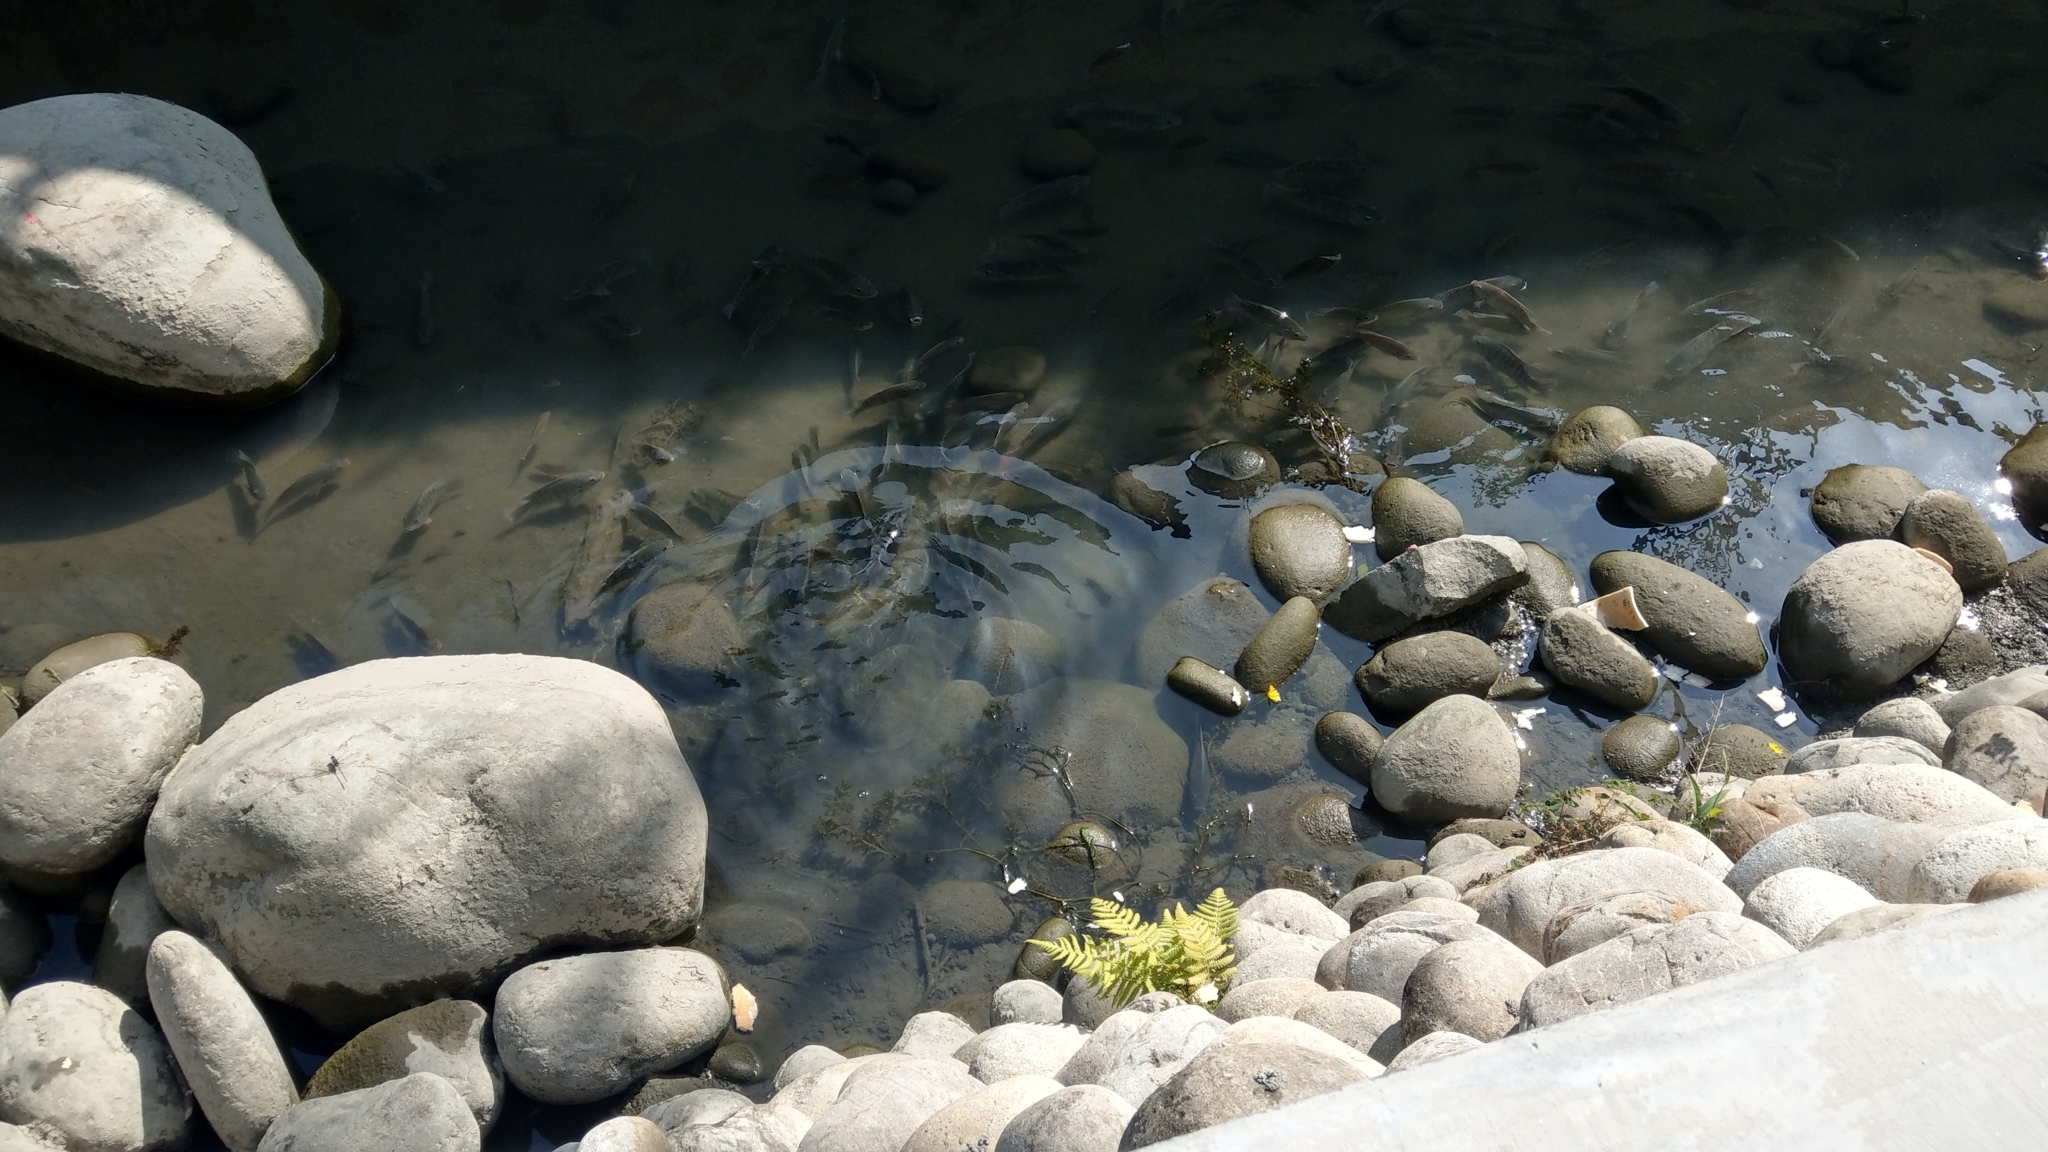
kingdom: Animalia
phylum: Chordata
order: Perciformes
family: Cichlidae
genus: Oreochromis
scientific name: Oreochromis mossambicus
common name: Mozambique tilapia
